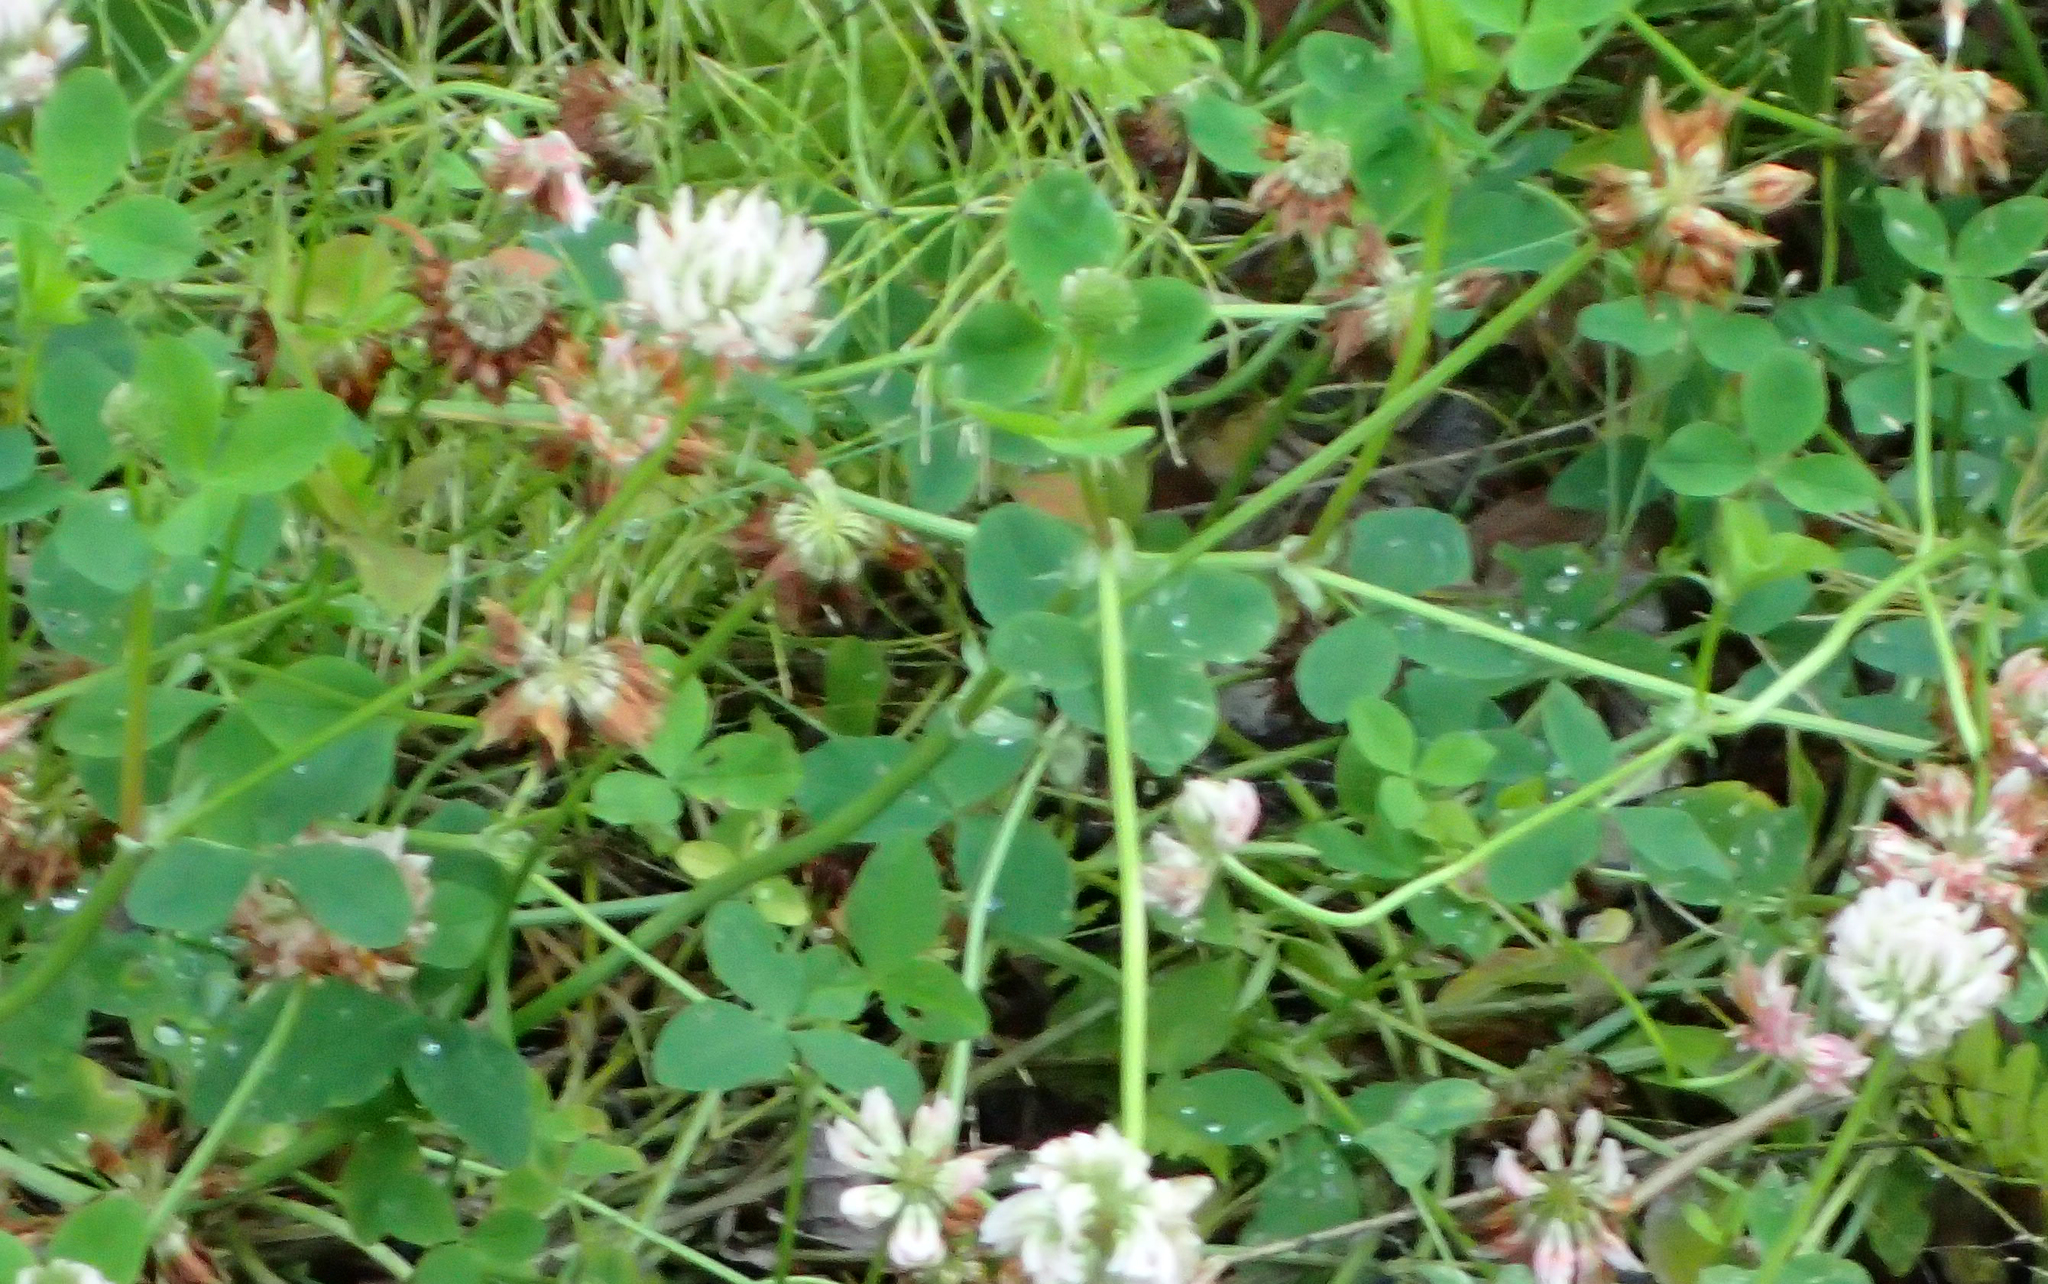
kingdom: Plantae
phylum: Tracheophyta
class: Magnoliopsida
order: Fabales
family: Fabaceae
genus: Trifolium
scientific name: Trifolium repens
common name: White clover
